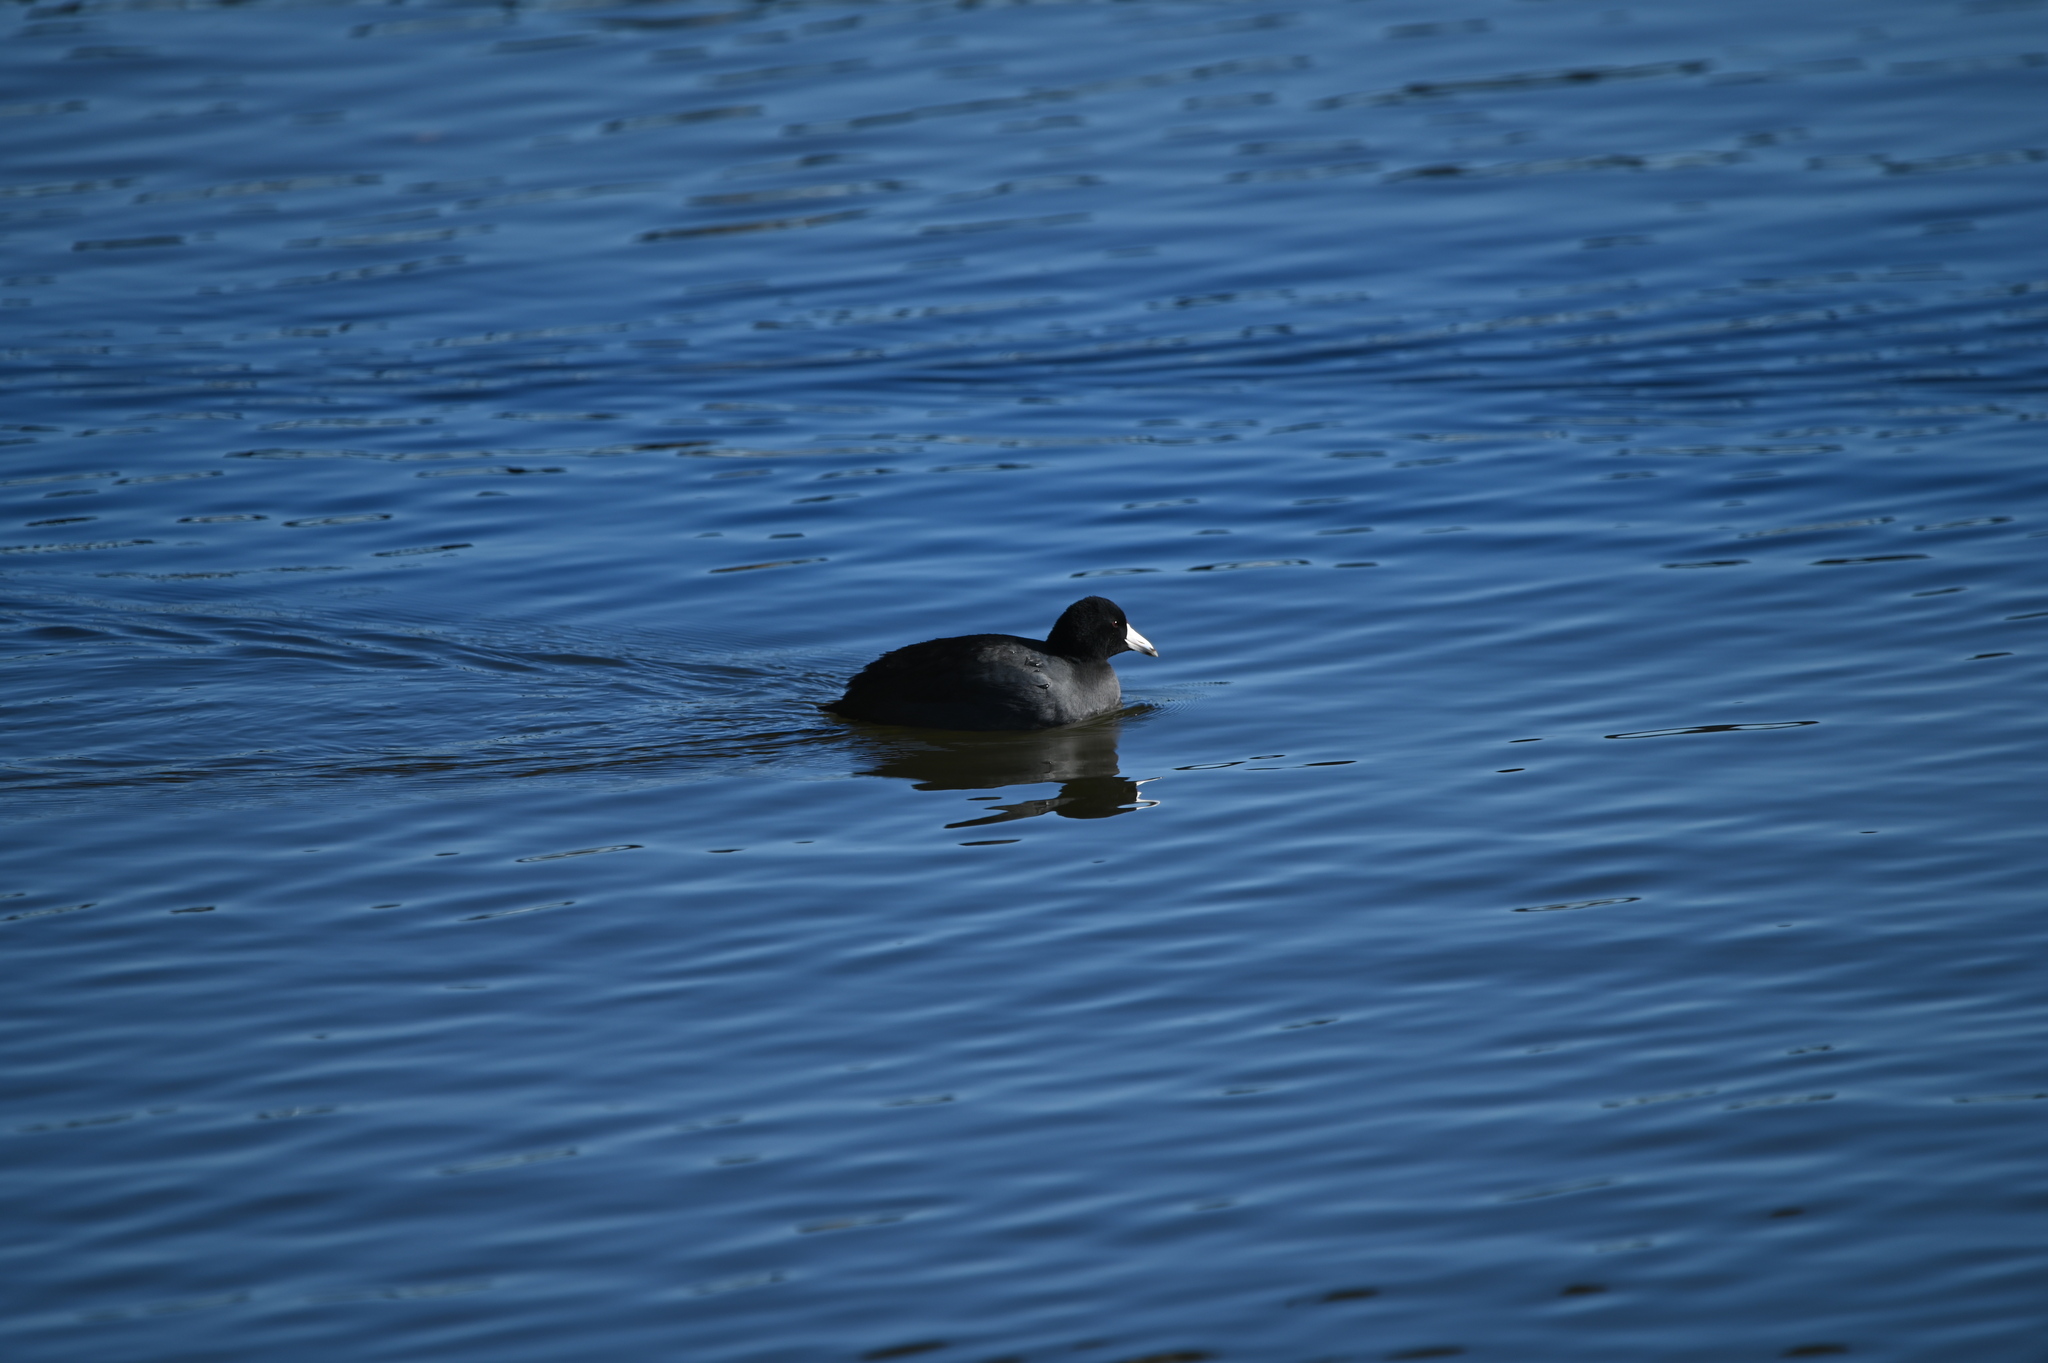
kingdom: Animalia
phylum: Chordata
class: Aves
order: Gruiformes
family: Rallidae
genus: Fulica
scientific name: Fulica americana
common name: American coot
